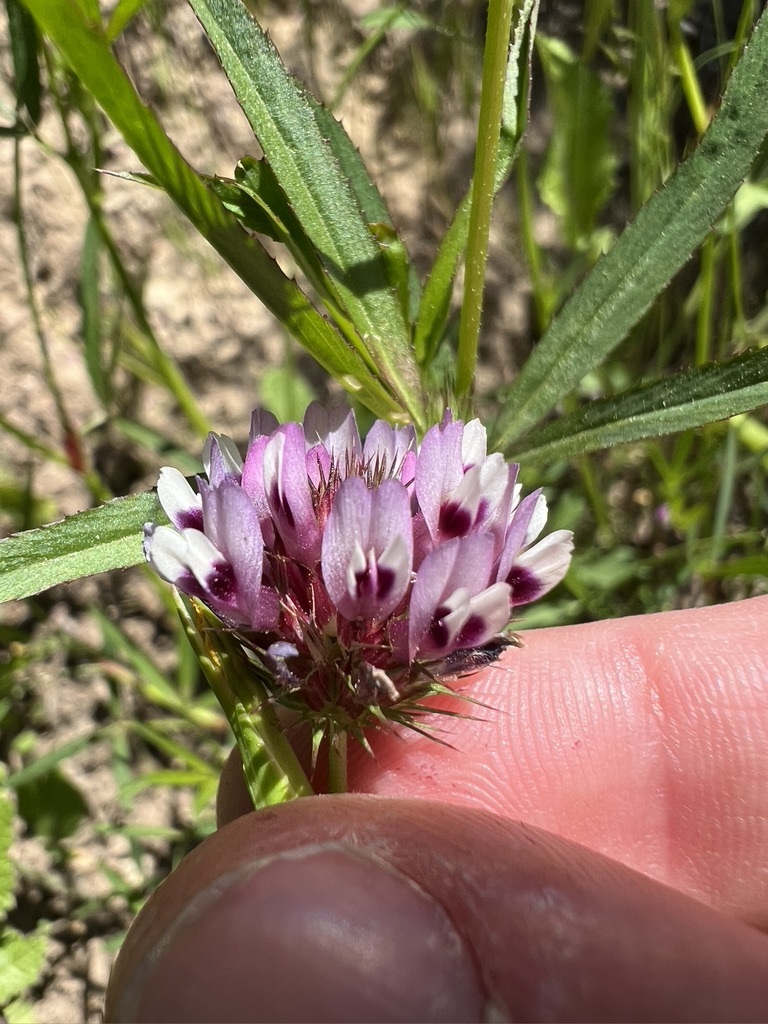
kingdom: Plantae
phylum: Tracheophyta
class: Magnoliopsida
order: Fabales
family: Fabaceae
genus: Trifolium
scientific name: Trifolium willdenovii
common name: Tomcat clover
